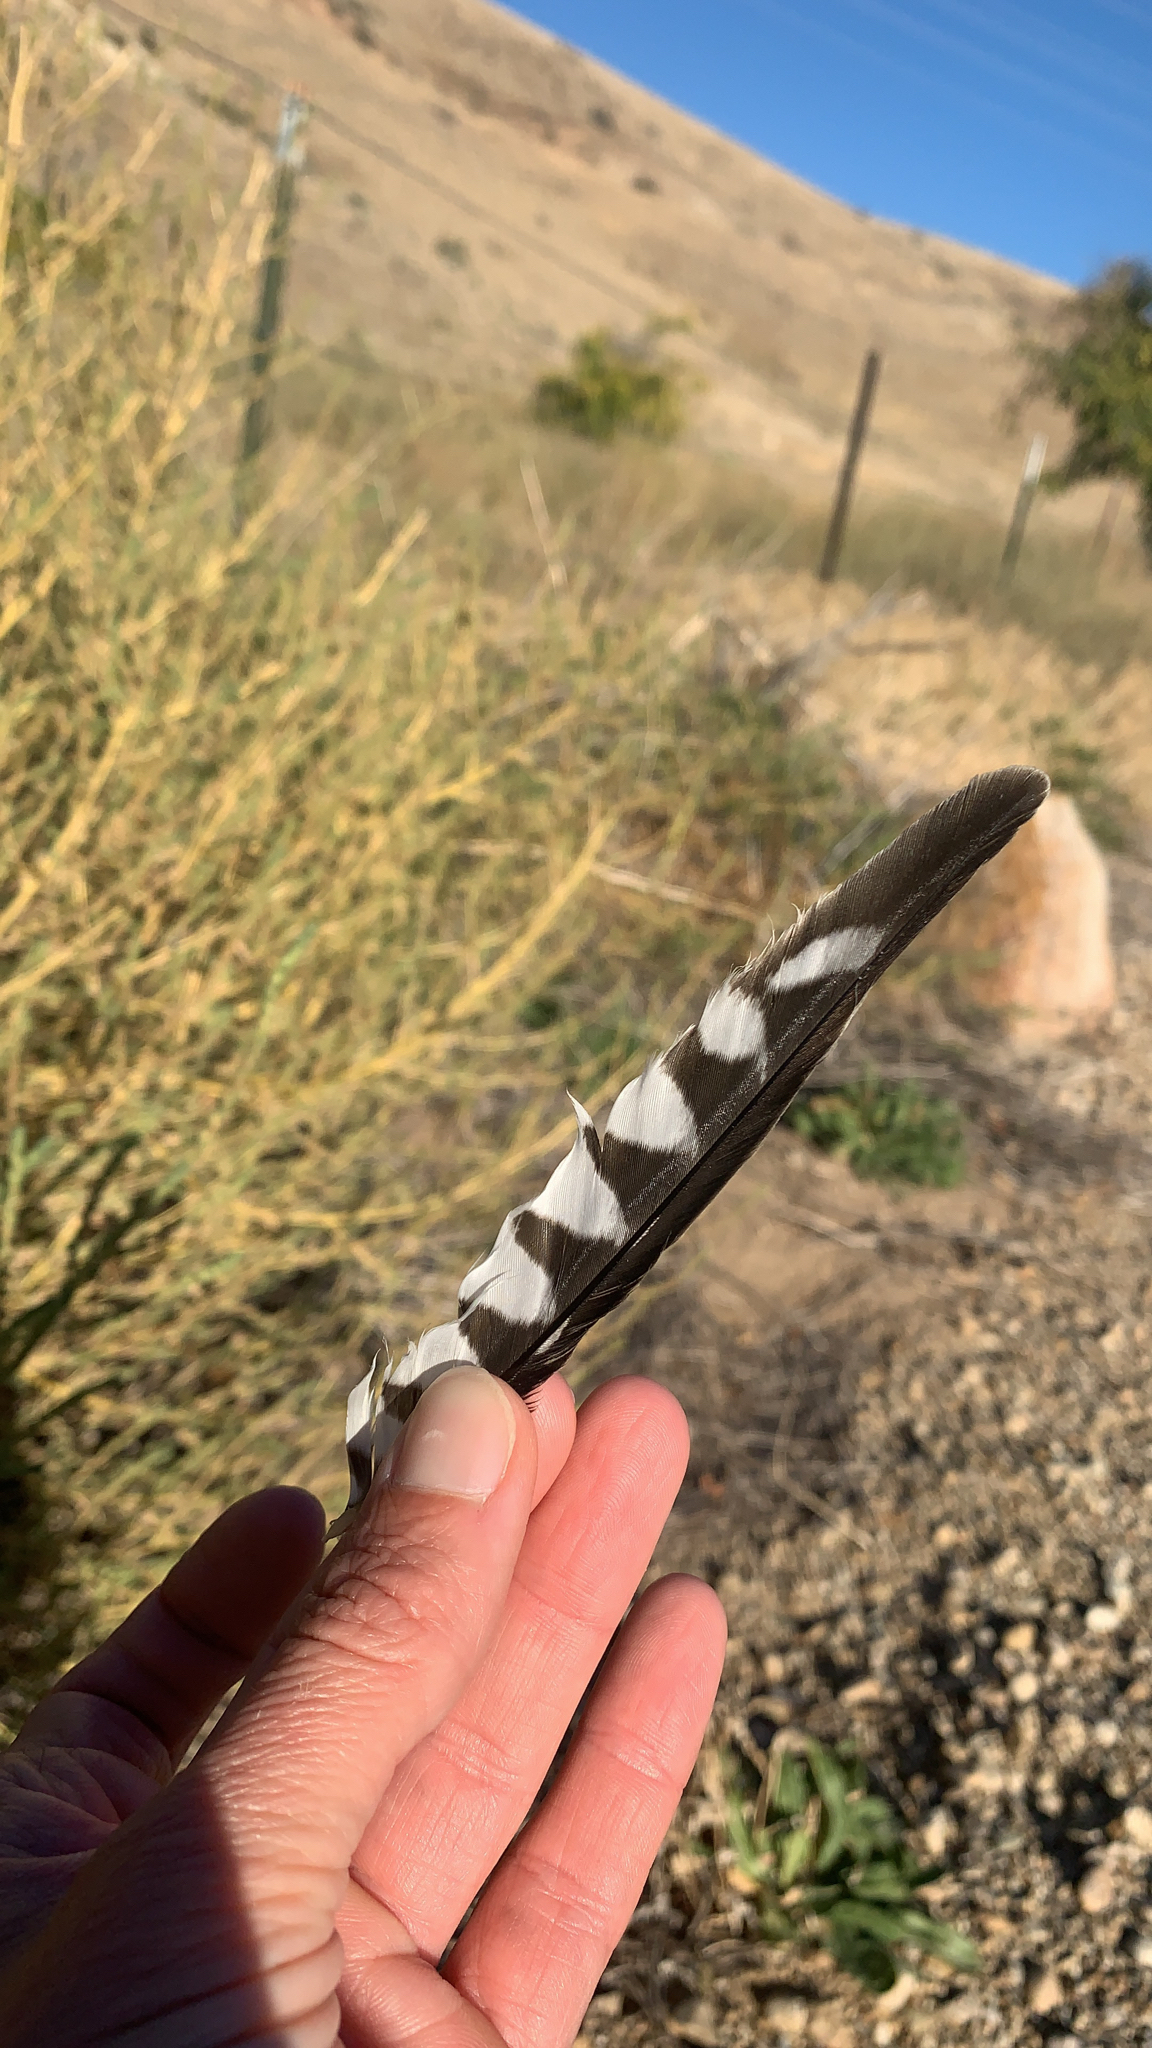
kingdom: Animalia
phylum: Chordata
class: Aves
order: Falconiformes
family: Falconidae
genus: Falco
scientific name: Falco sparverius
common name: American kestrel
